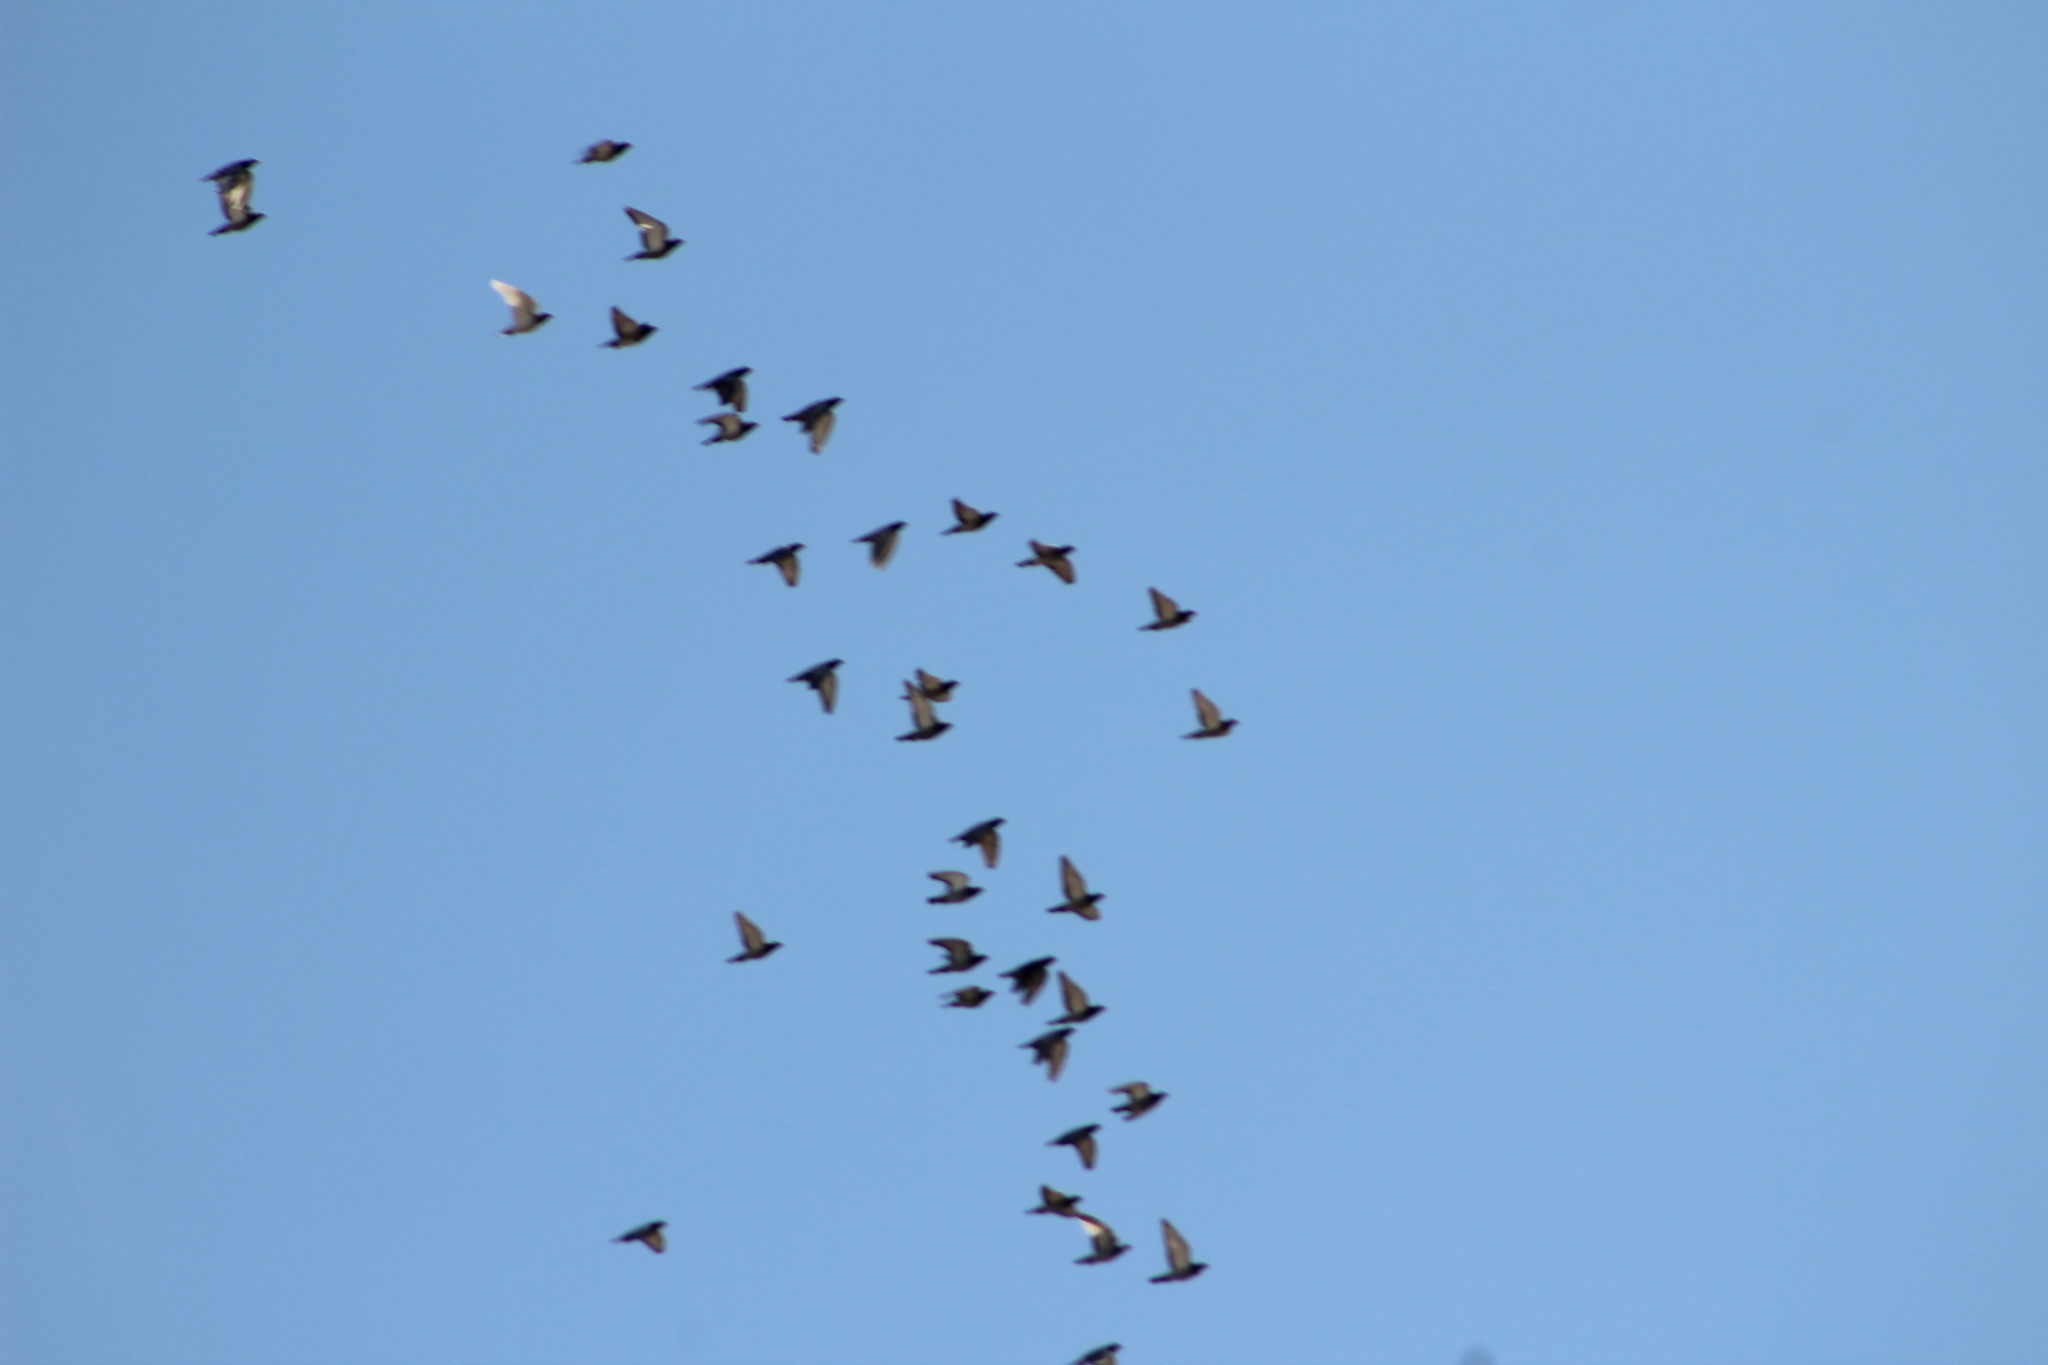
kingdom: Animalia
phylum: Chordata
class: Aves
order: Columbiformes
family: Columbidae
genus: Columba
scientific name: Columba livia
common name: Rock pigeon
